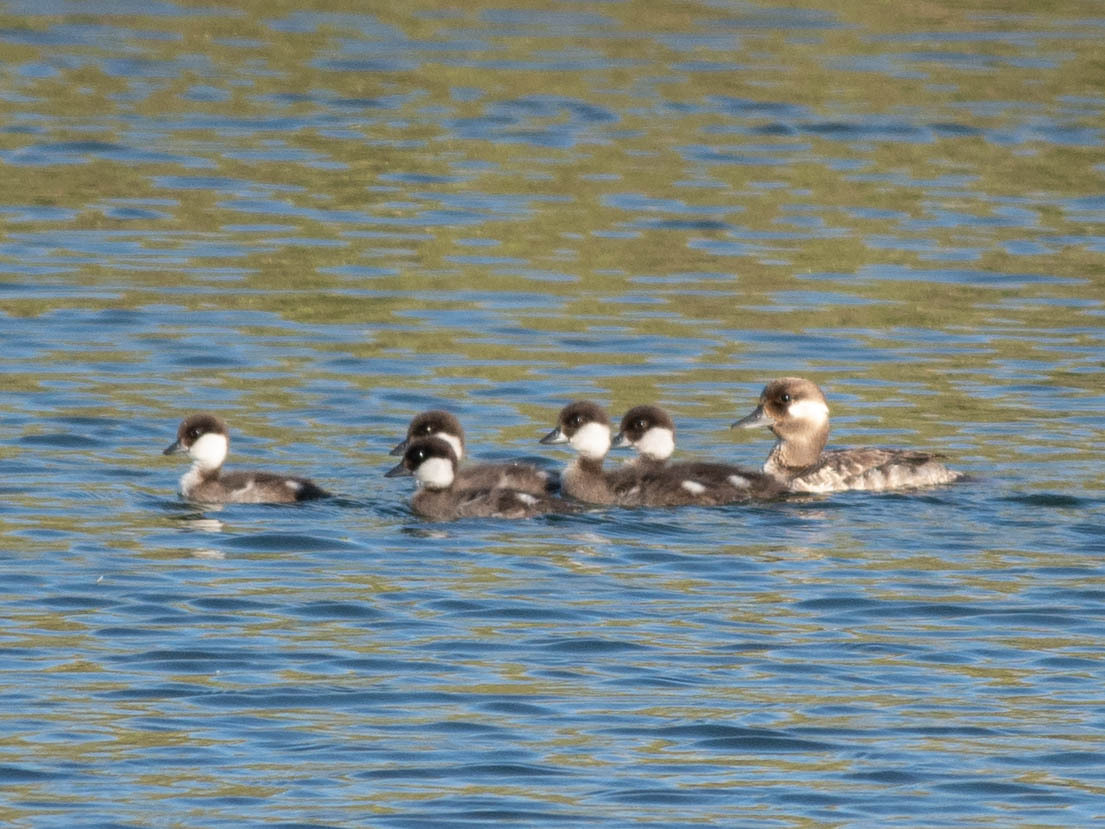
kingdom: Animalia
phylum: Chordata
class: Aves
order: Anseriformes
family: Anatidae
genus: Bucephala
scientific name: Bucephala albeola
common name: Bufflehead
